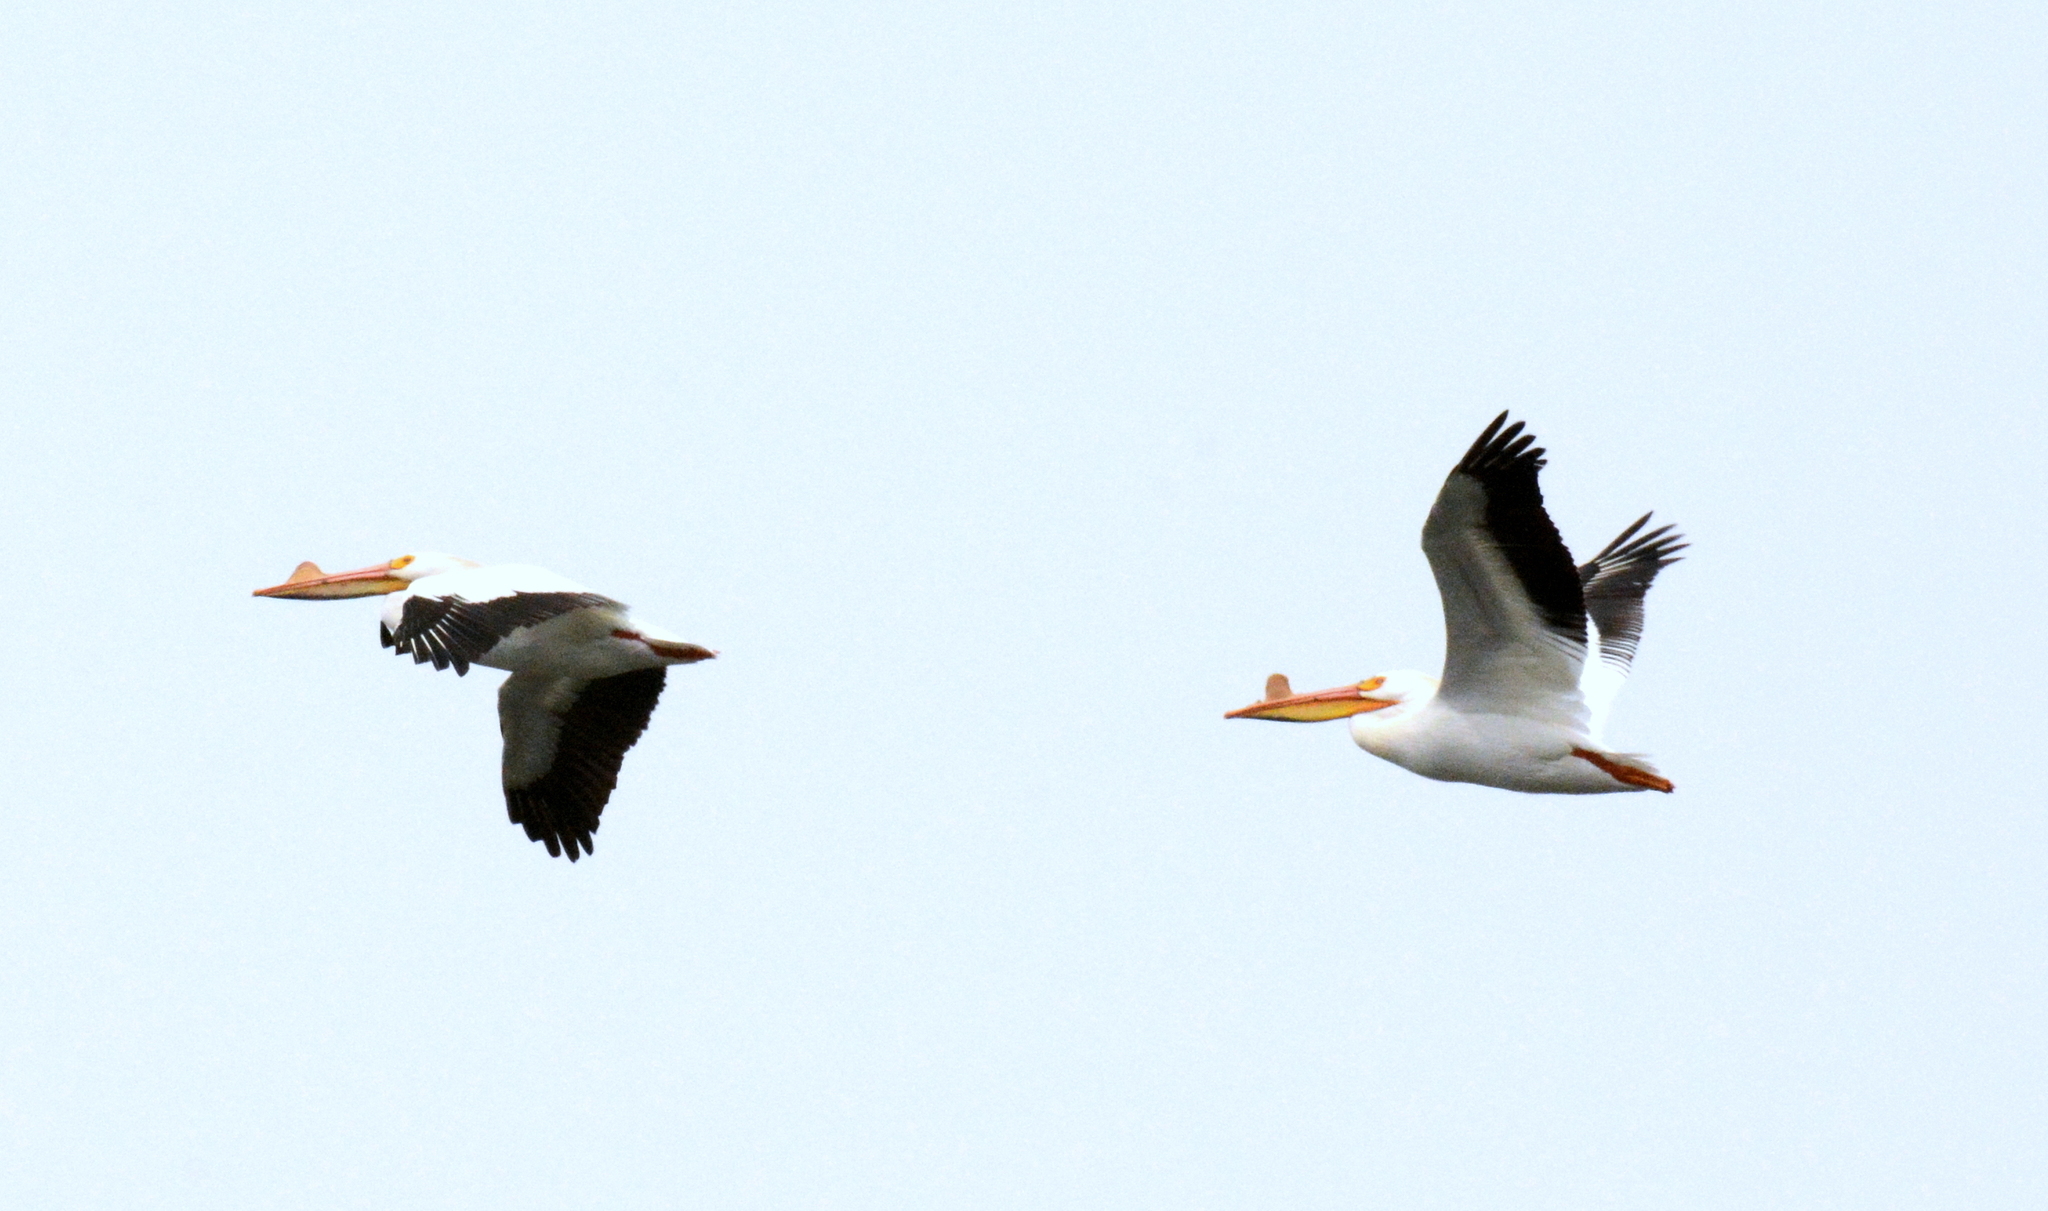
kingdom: Animalia
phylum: Chordata
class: Aves
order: Pelecaniformes
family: Pelecanidae
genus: Pelecanus
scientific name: Pelecanus erythrorhynchos
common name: American white pelican
